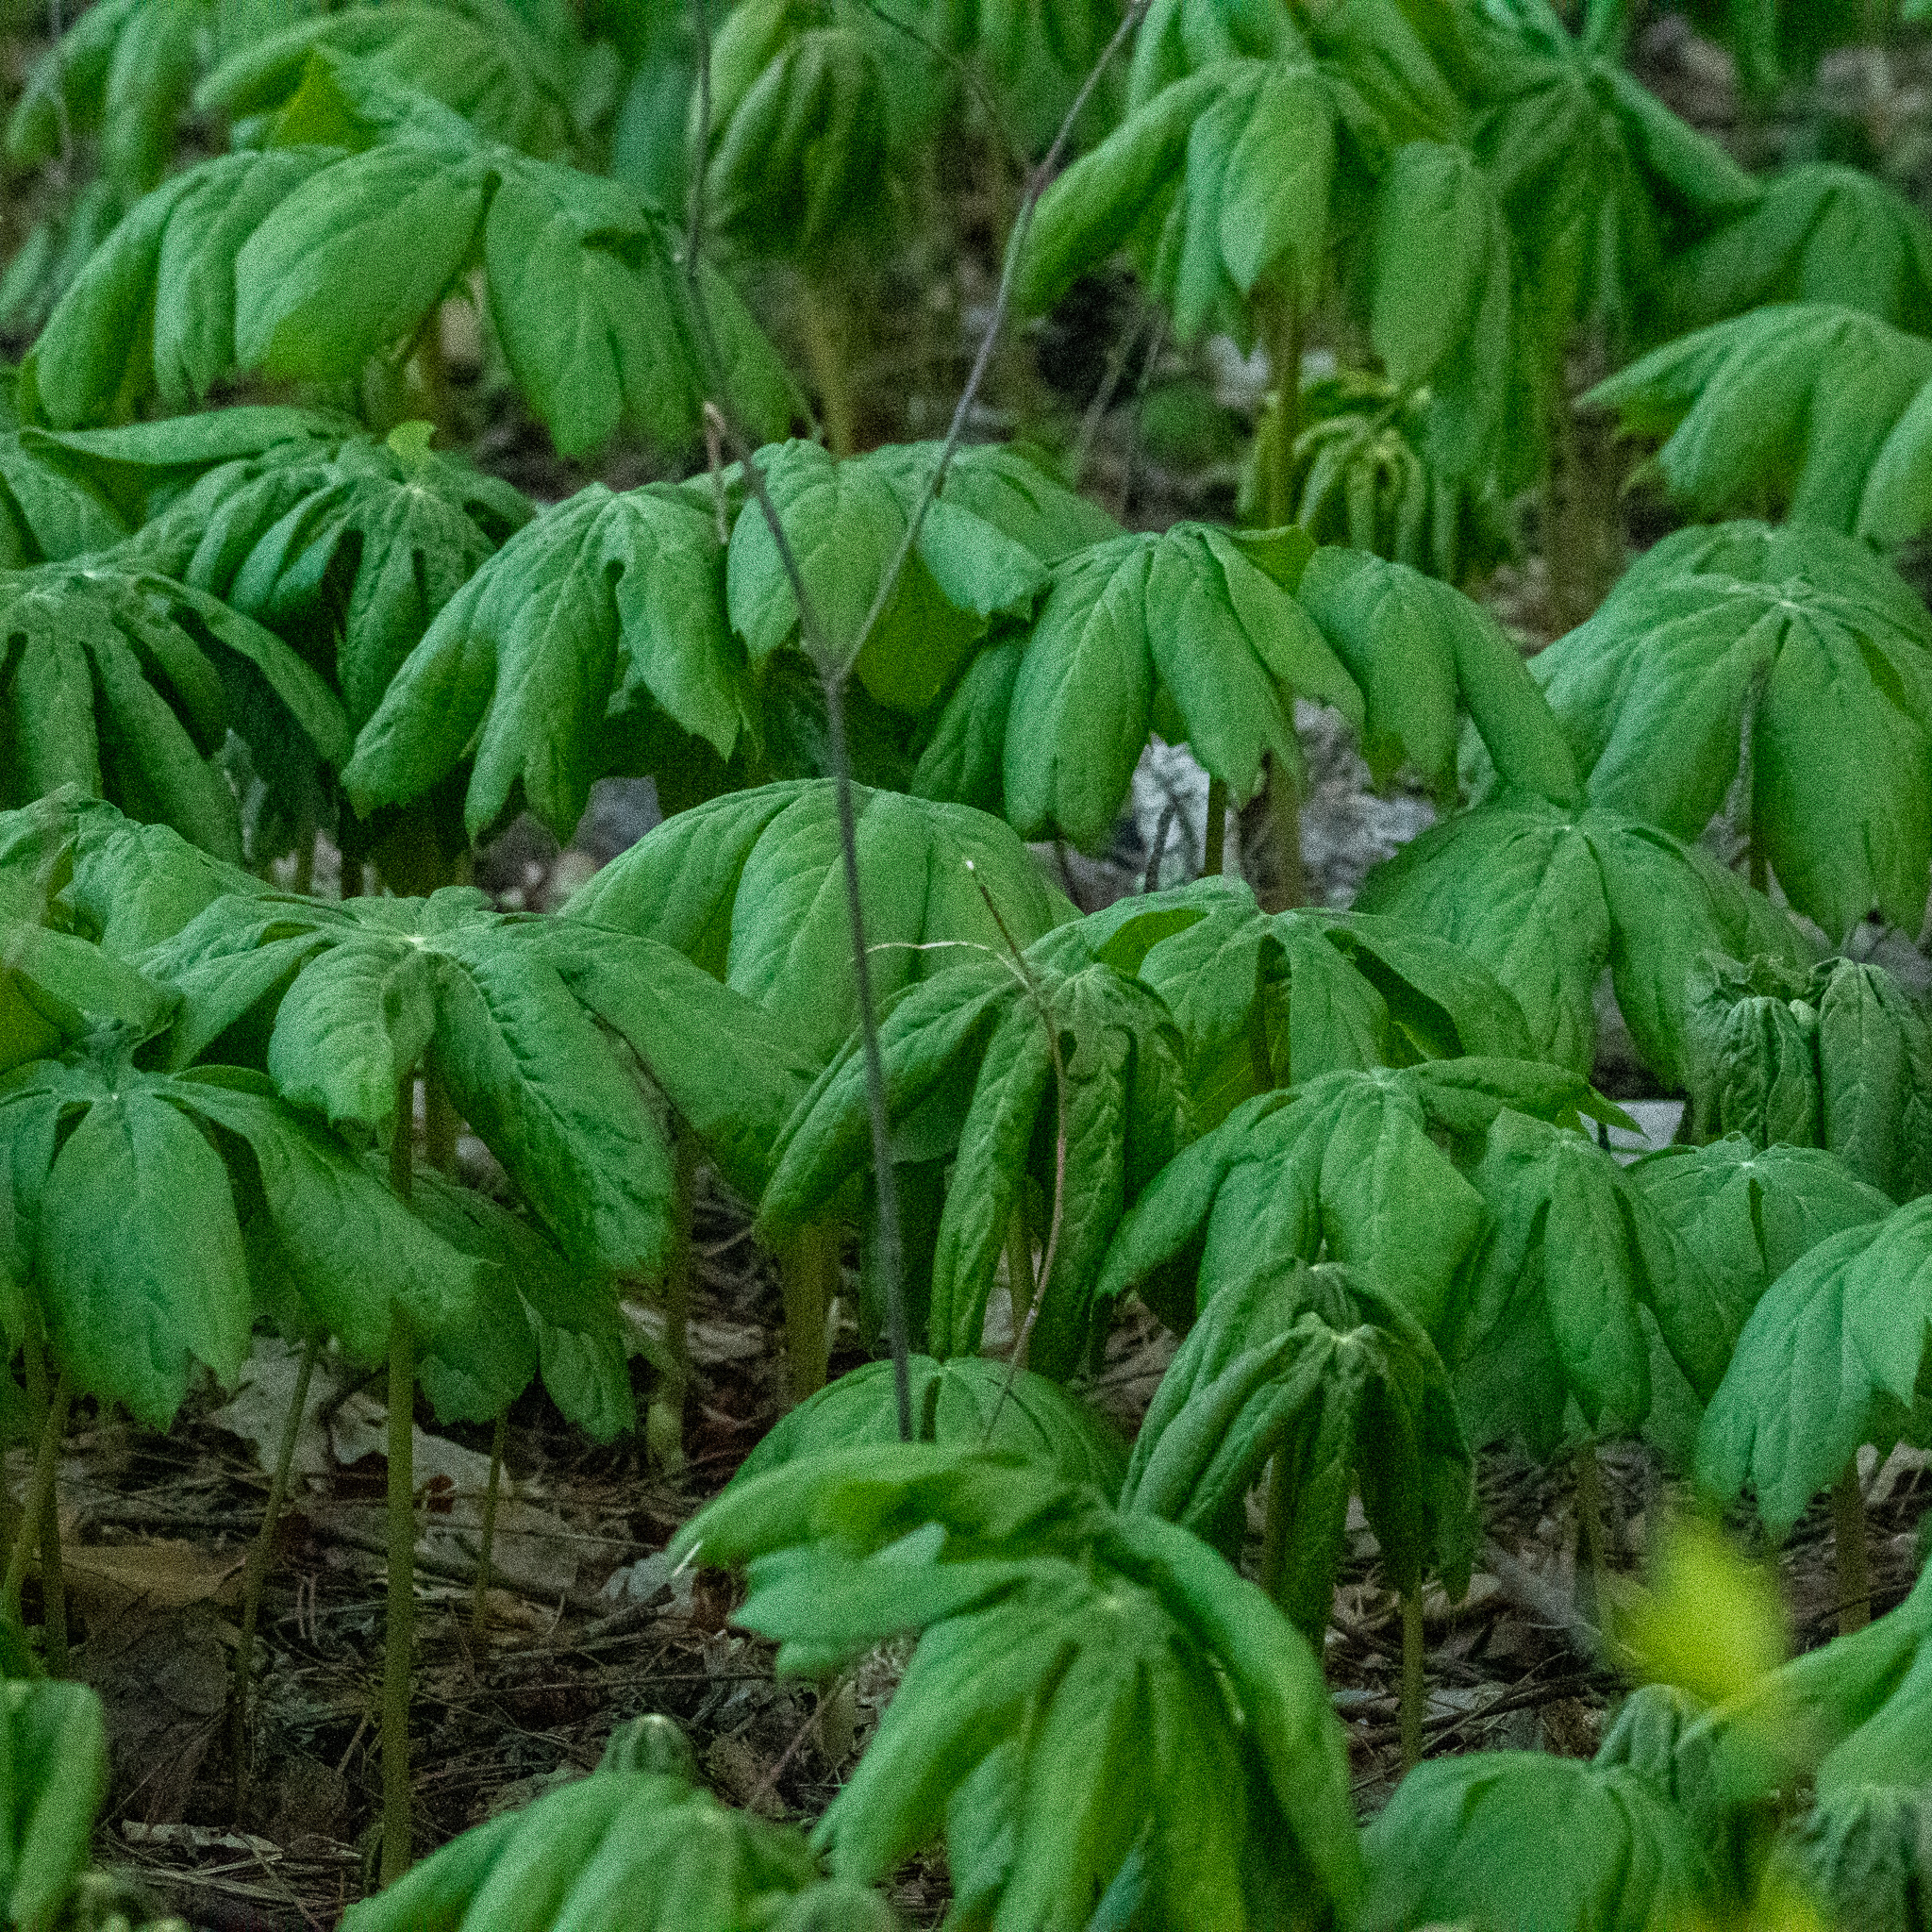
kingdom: Plantae
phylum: Tracheophyta
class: Magnoliopsida
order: Ranunculales
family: Berberidaceae
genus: Podophyllum
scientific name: Podophyllum peltatum
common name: Wild mandrake
